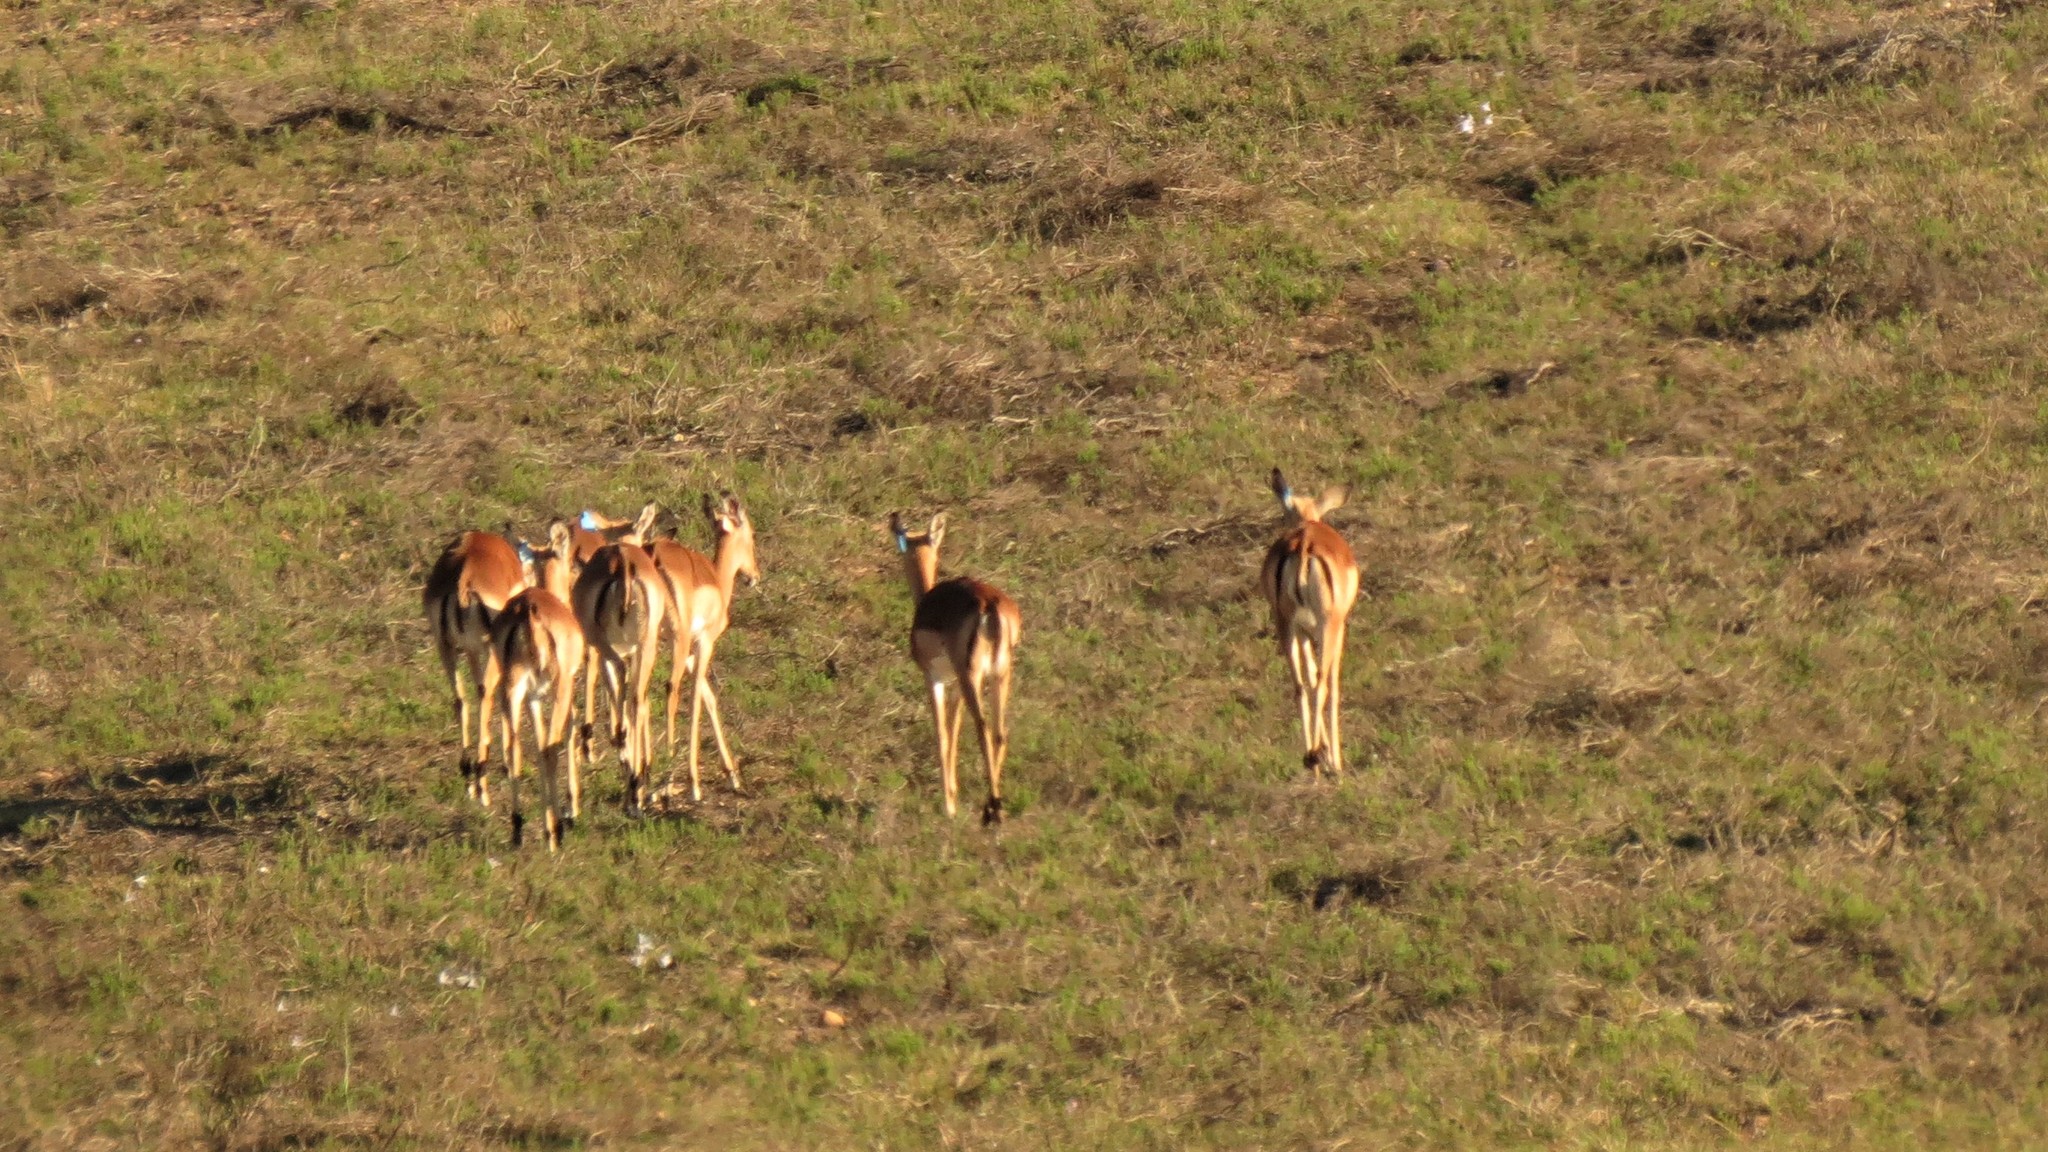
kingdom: Animalia
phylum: Chordata
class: Mammalia
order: Artiodactyla
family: Bovidae
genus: Aepyceros
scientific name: Aepyceros melampus
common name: Impala
